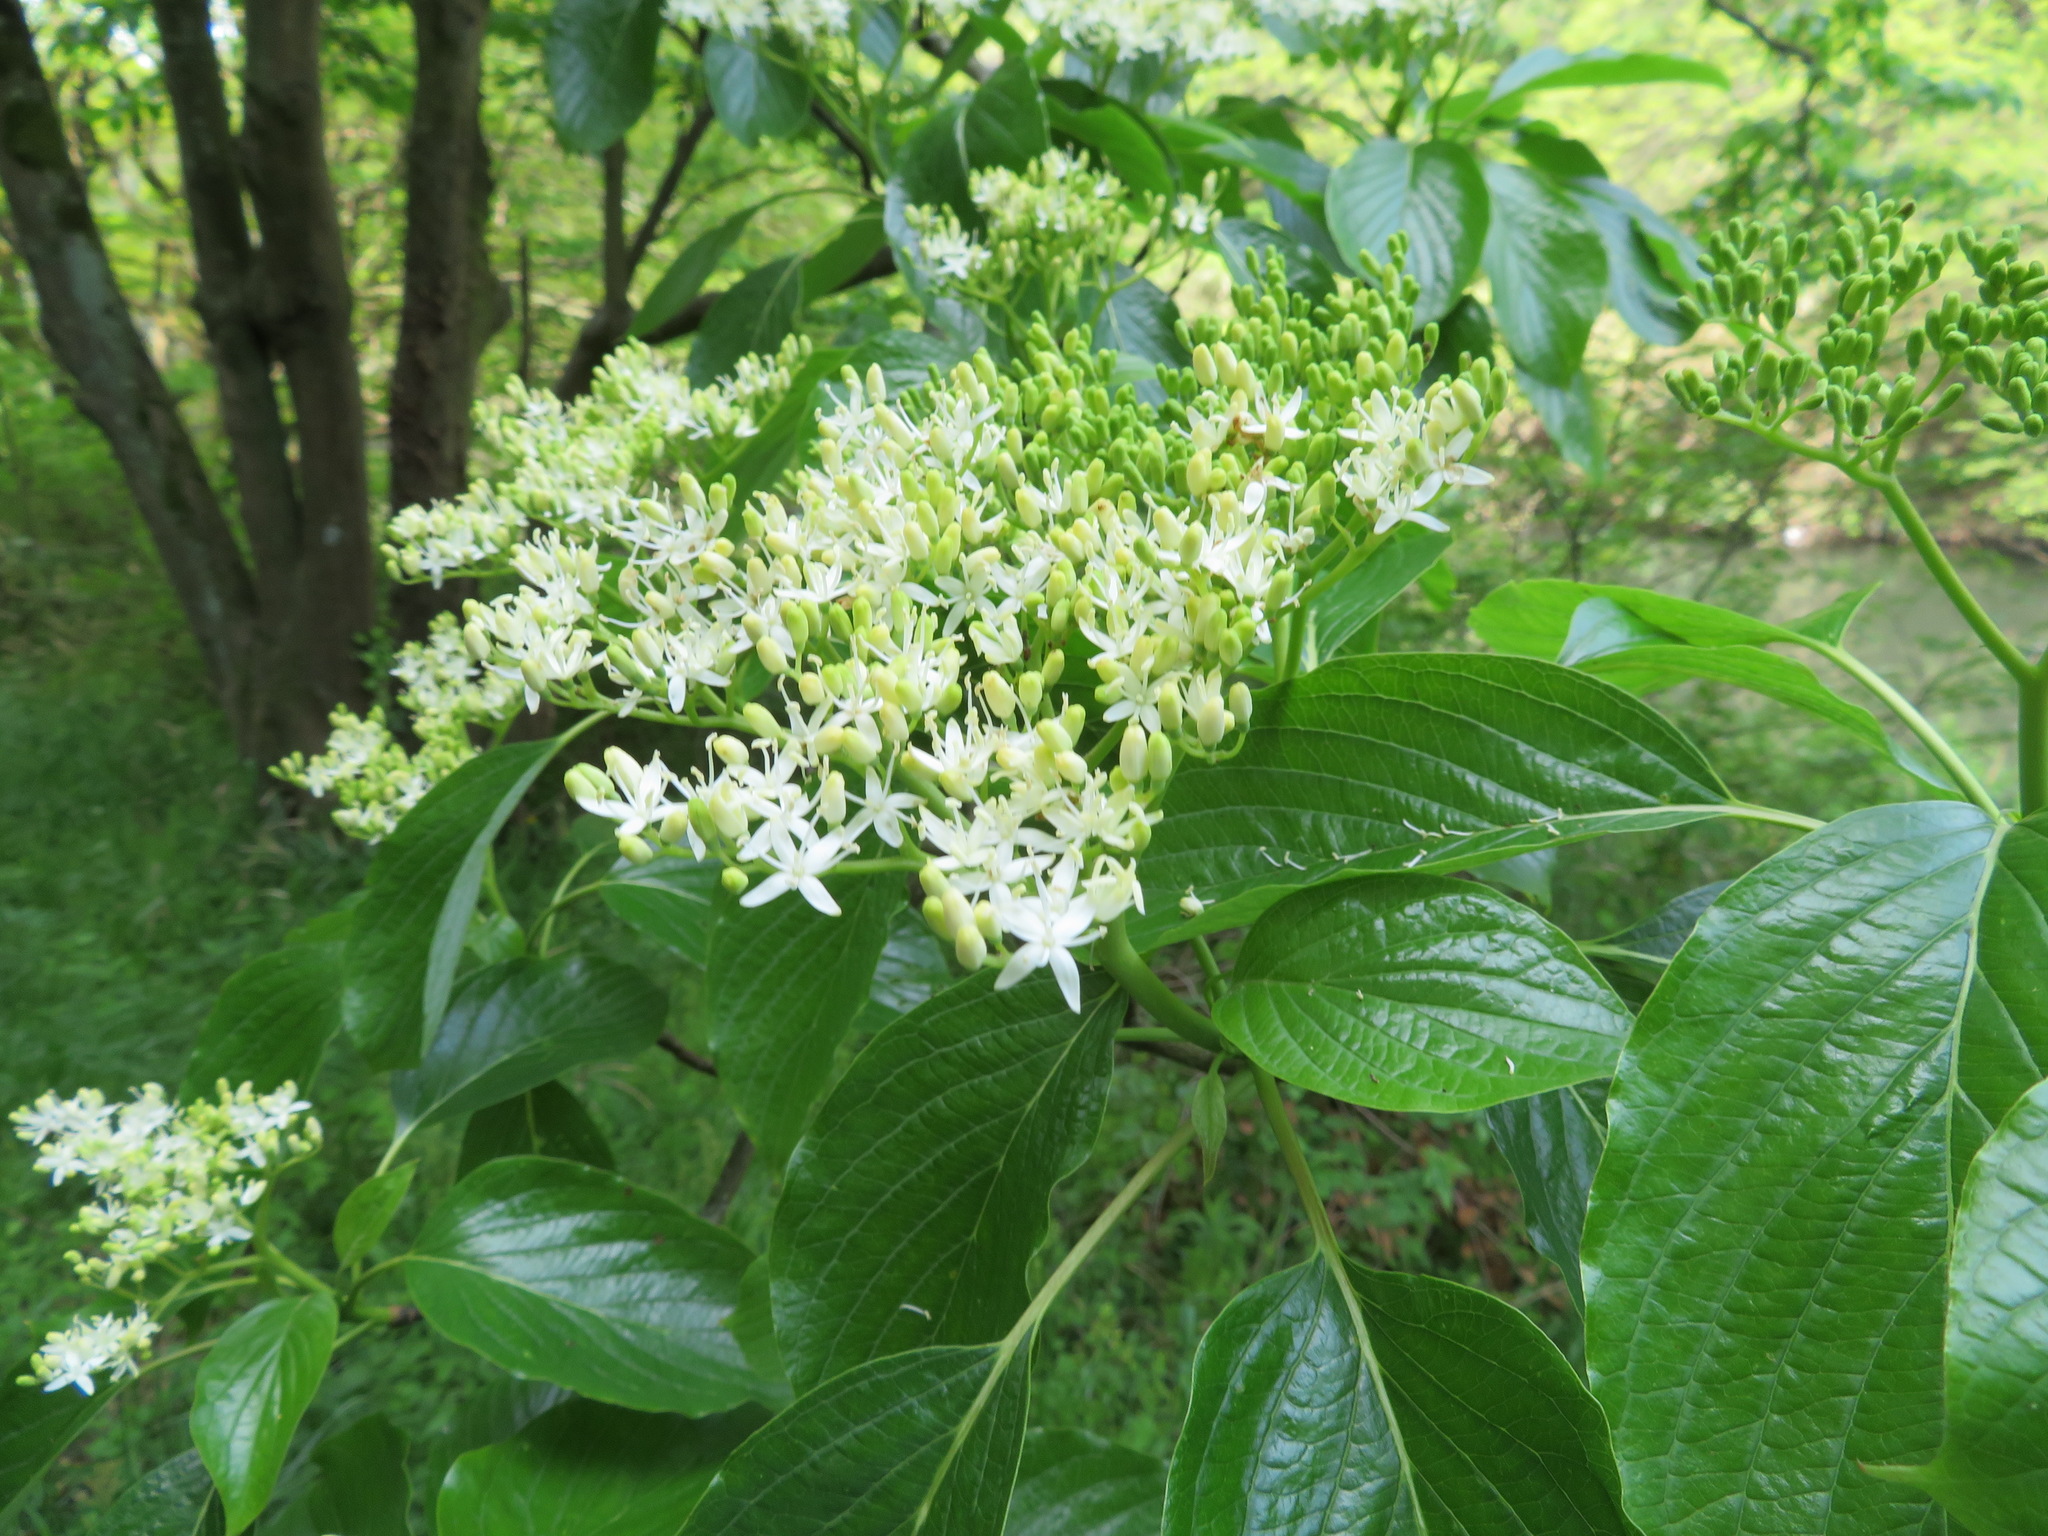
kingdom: Plantae
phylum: Tracheophyta
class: Magnoliopsida
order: Cornales
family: Cornaceae
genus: Cornus
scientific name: Cornus controversa
